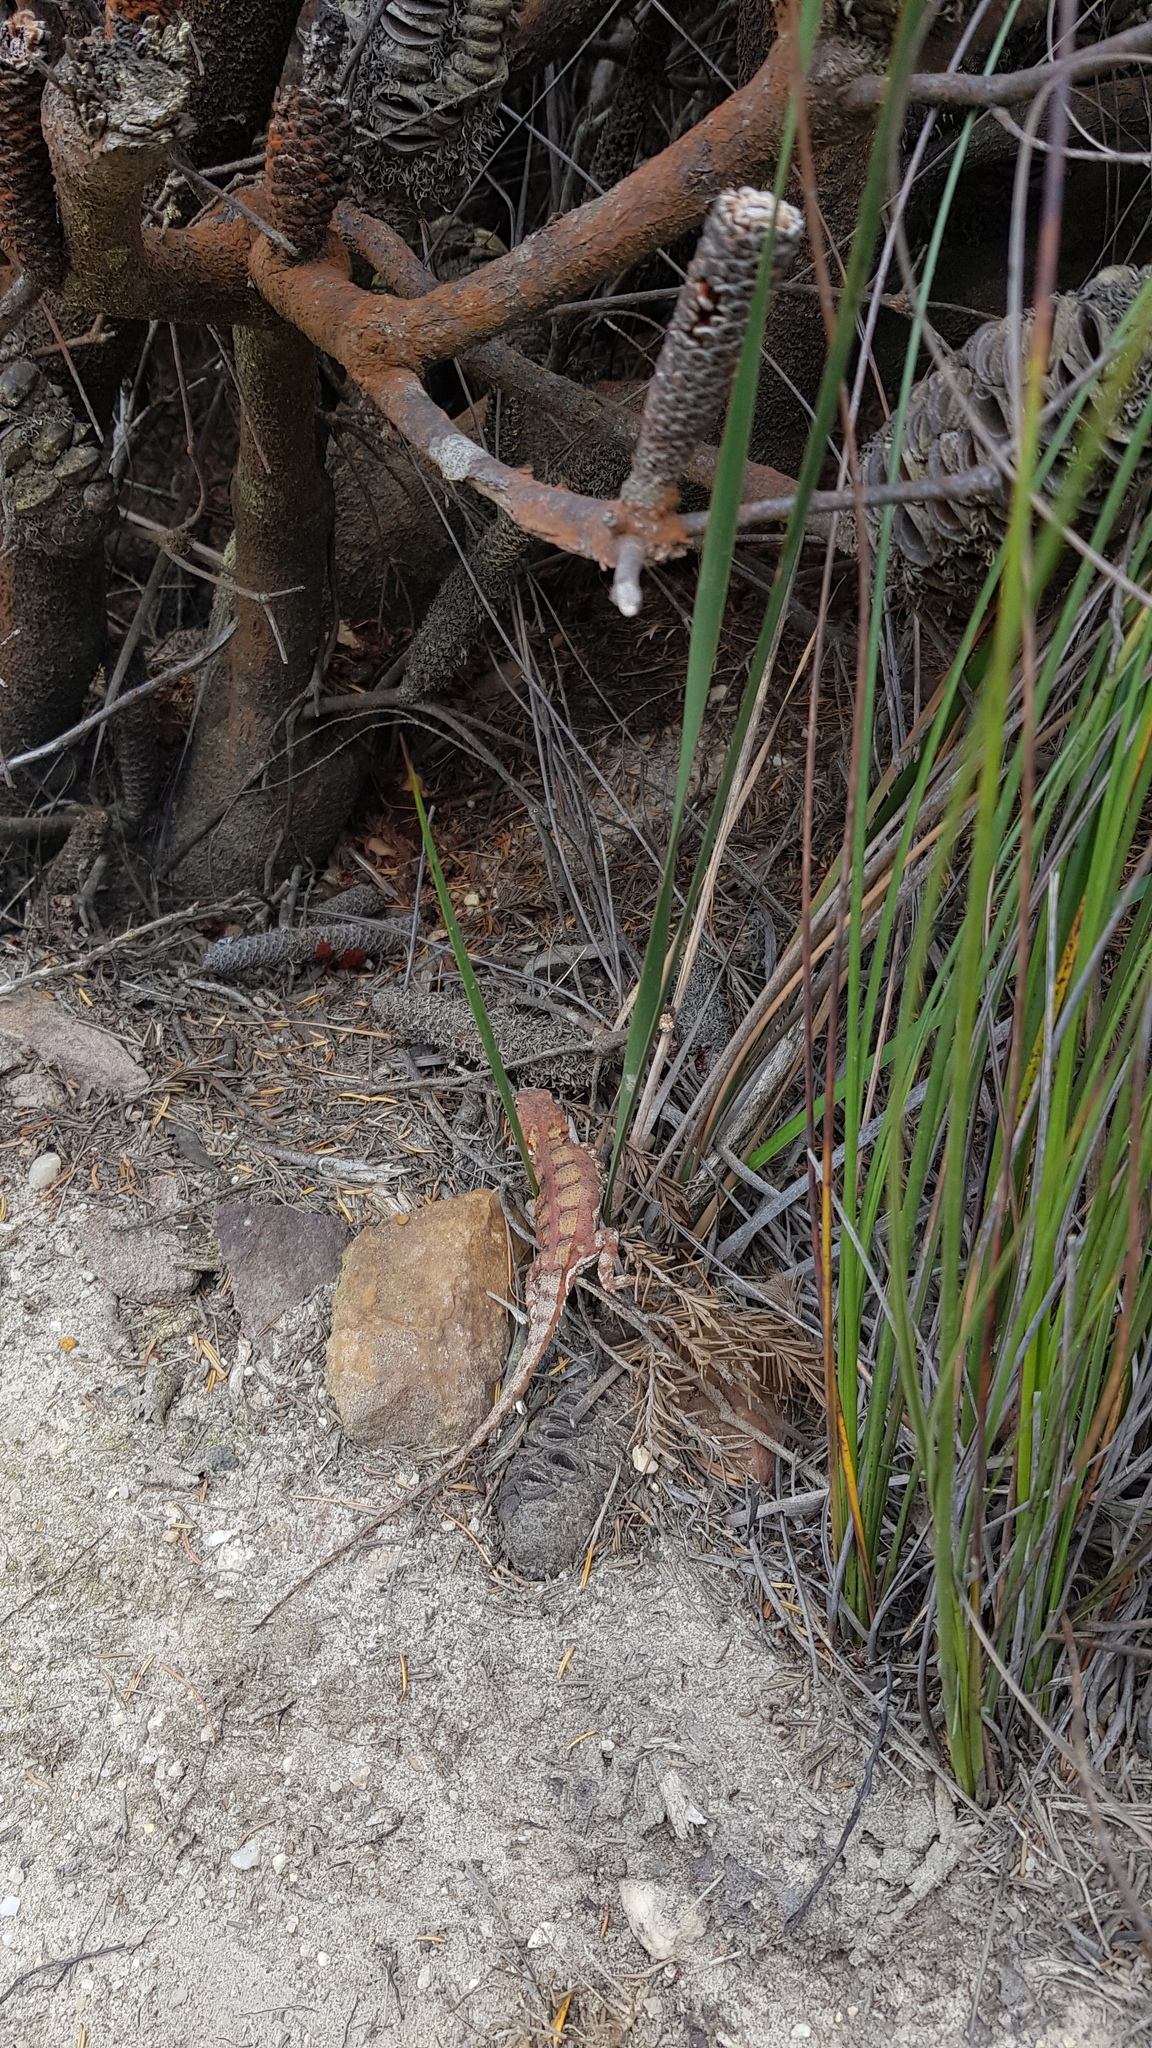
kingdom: Animalia
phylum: Chordata
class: Squamata
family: Agamidae
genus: Rankinia
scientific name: Rankinia diemensis
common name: Mountain dragon
